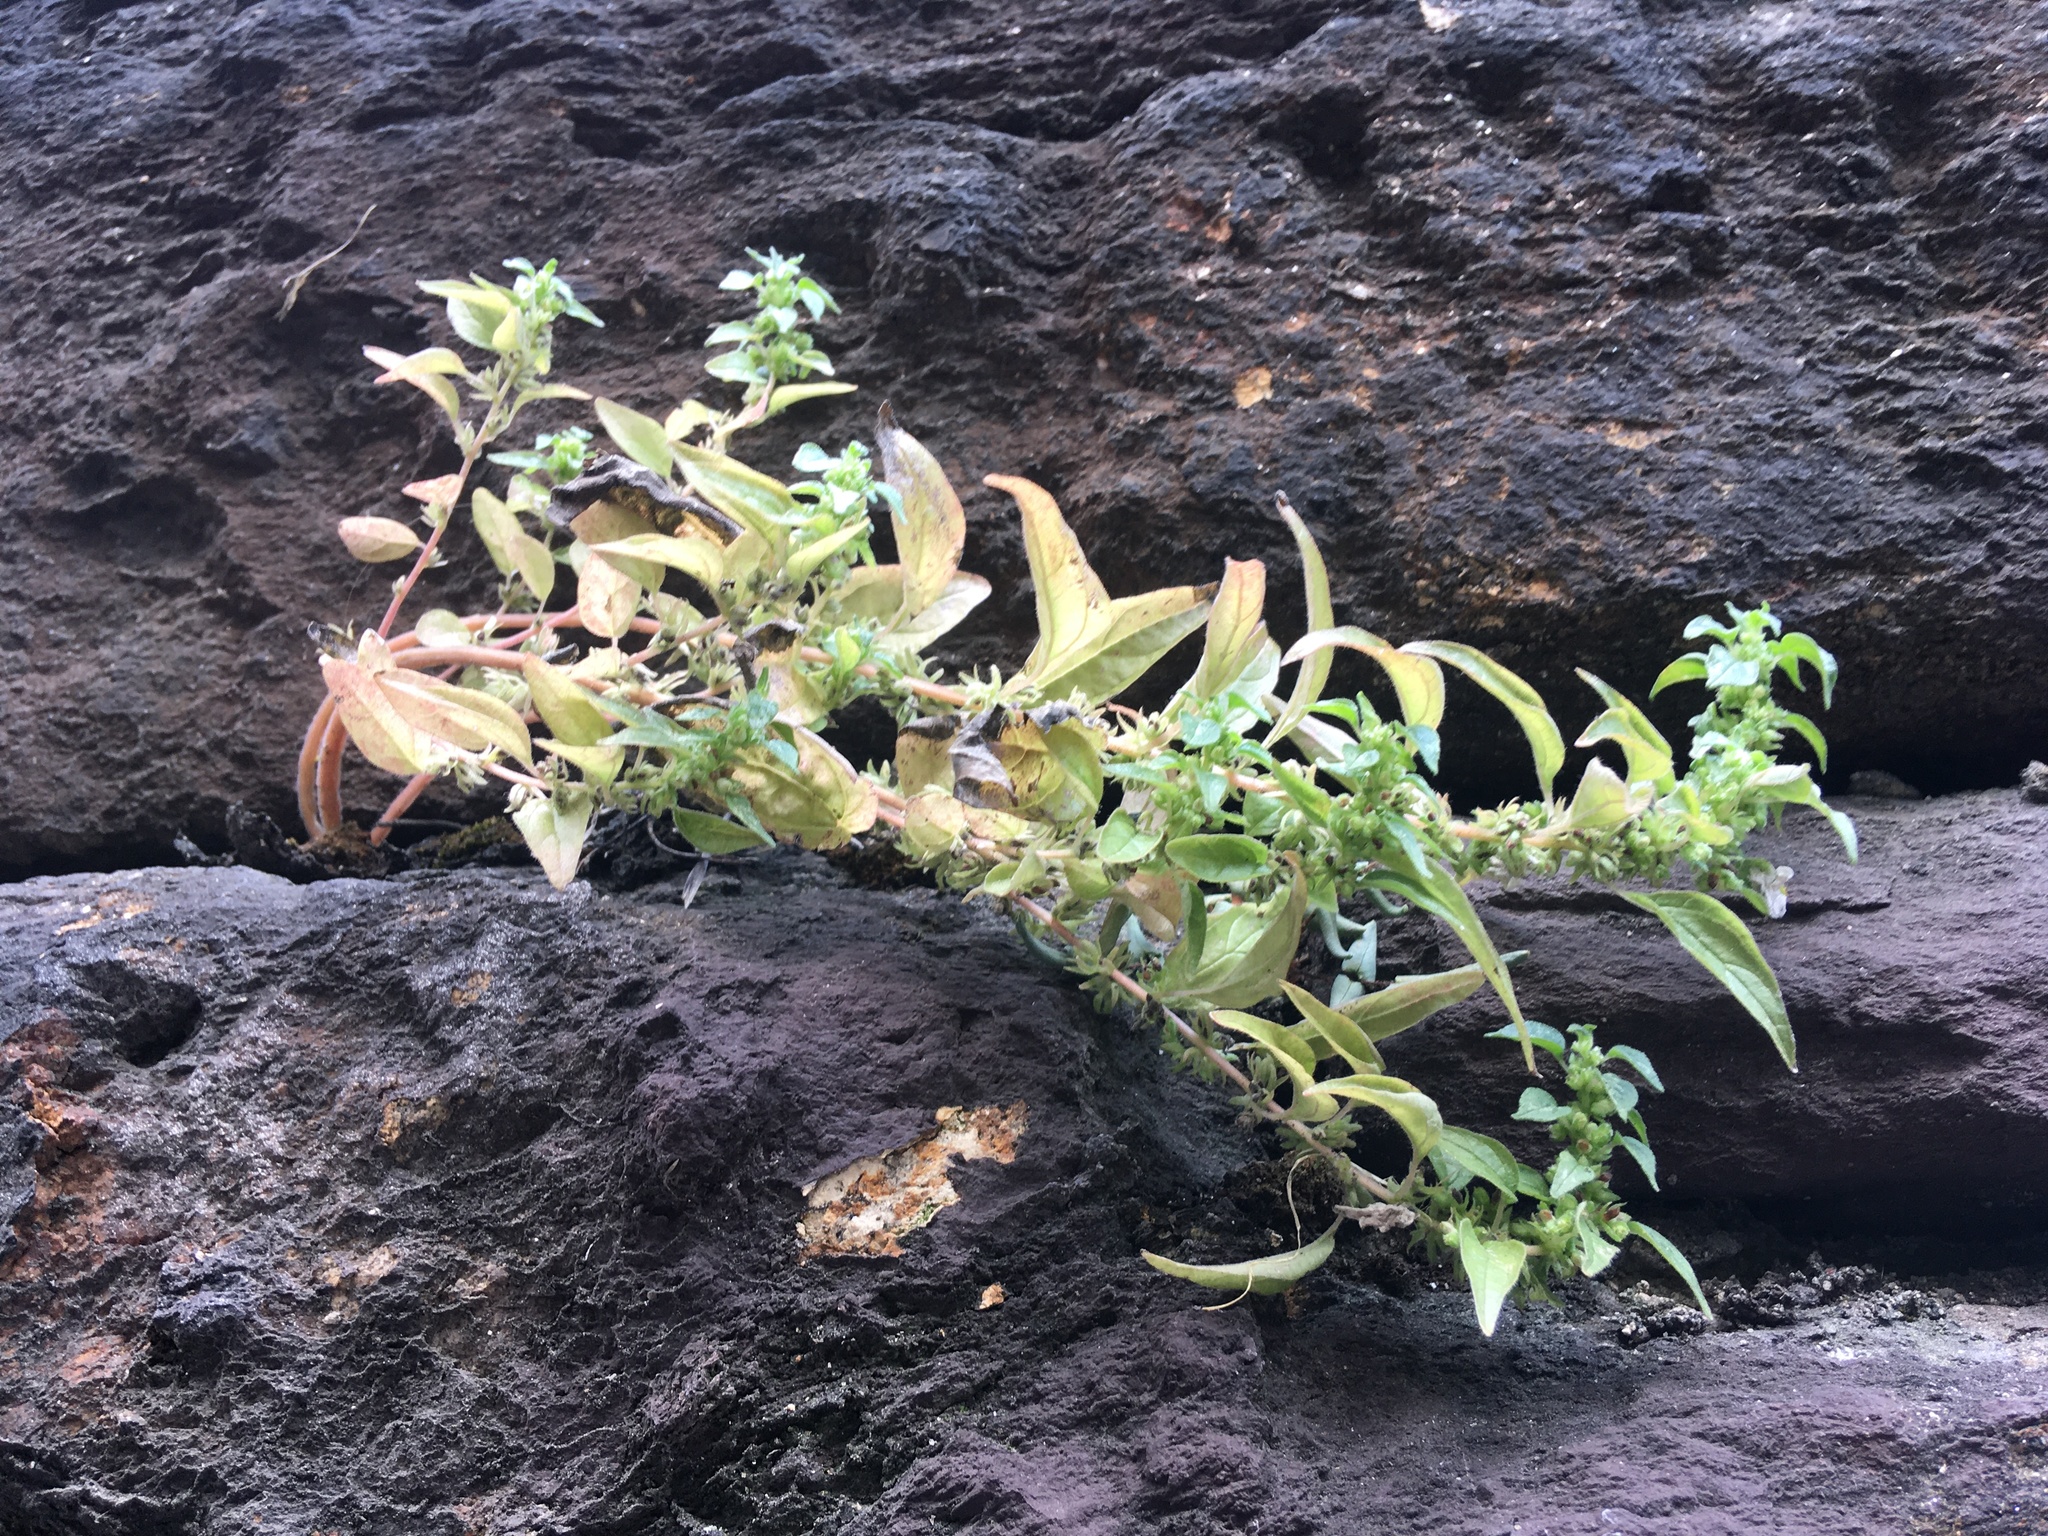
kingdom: Plantae
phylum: Tracheophyta
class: Magnoliopsida
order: Rosales
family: Urticaceae
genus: Parietaria
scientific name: Parietaria pensylvanica
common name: Pennsylvania pellitory
